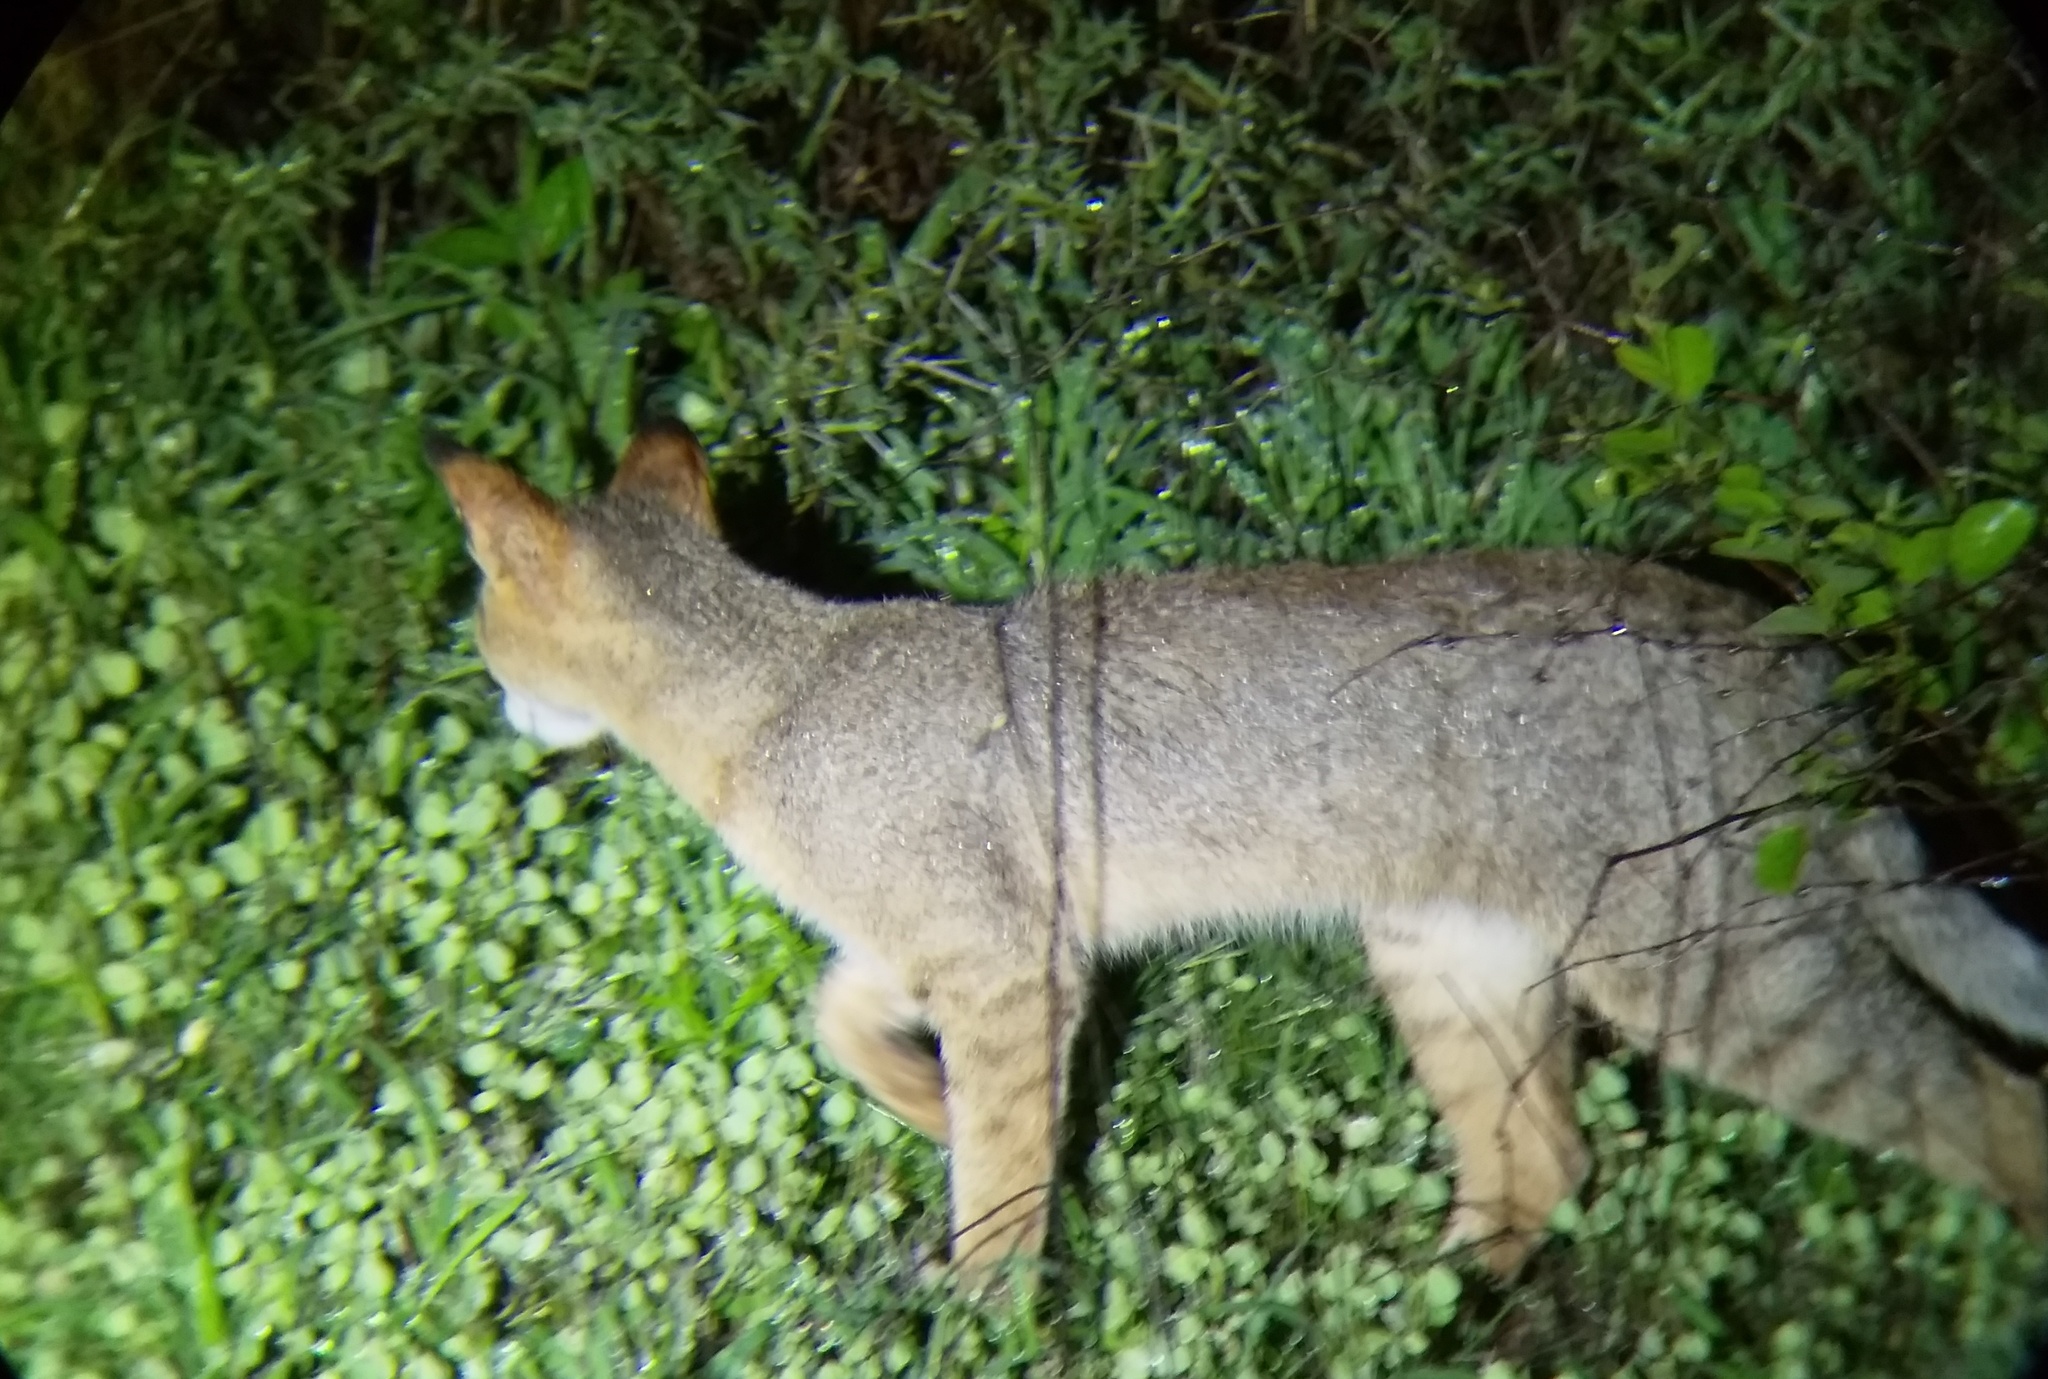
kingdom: Animalia
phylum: Chordata
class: Mammalia
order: Carnivora
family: Felidae
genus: Felis
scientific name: Felis chaus
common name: Jungle cat
